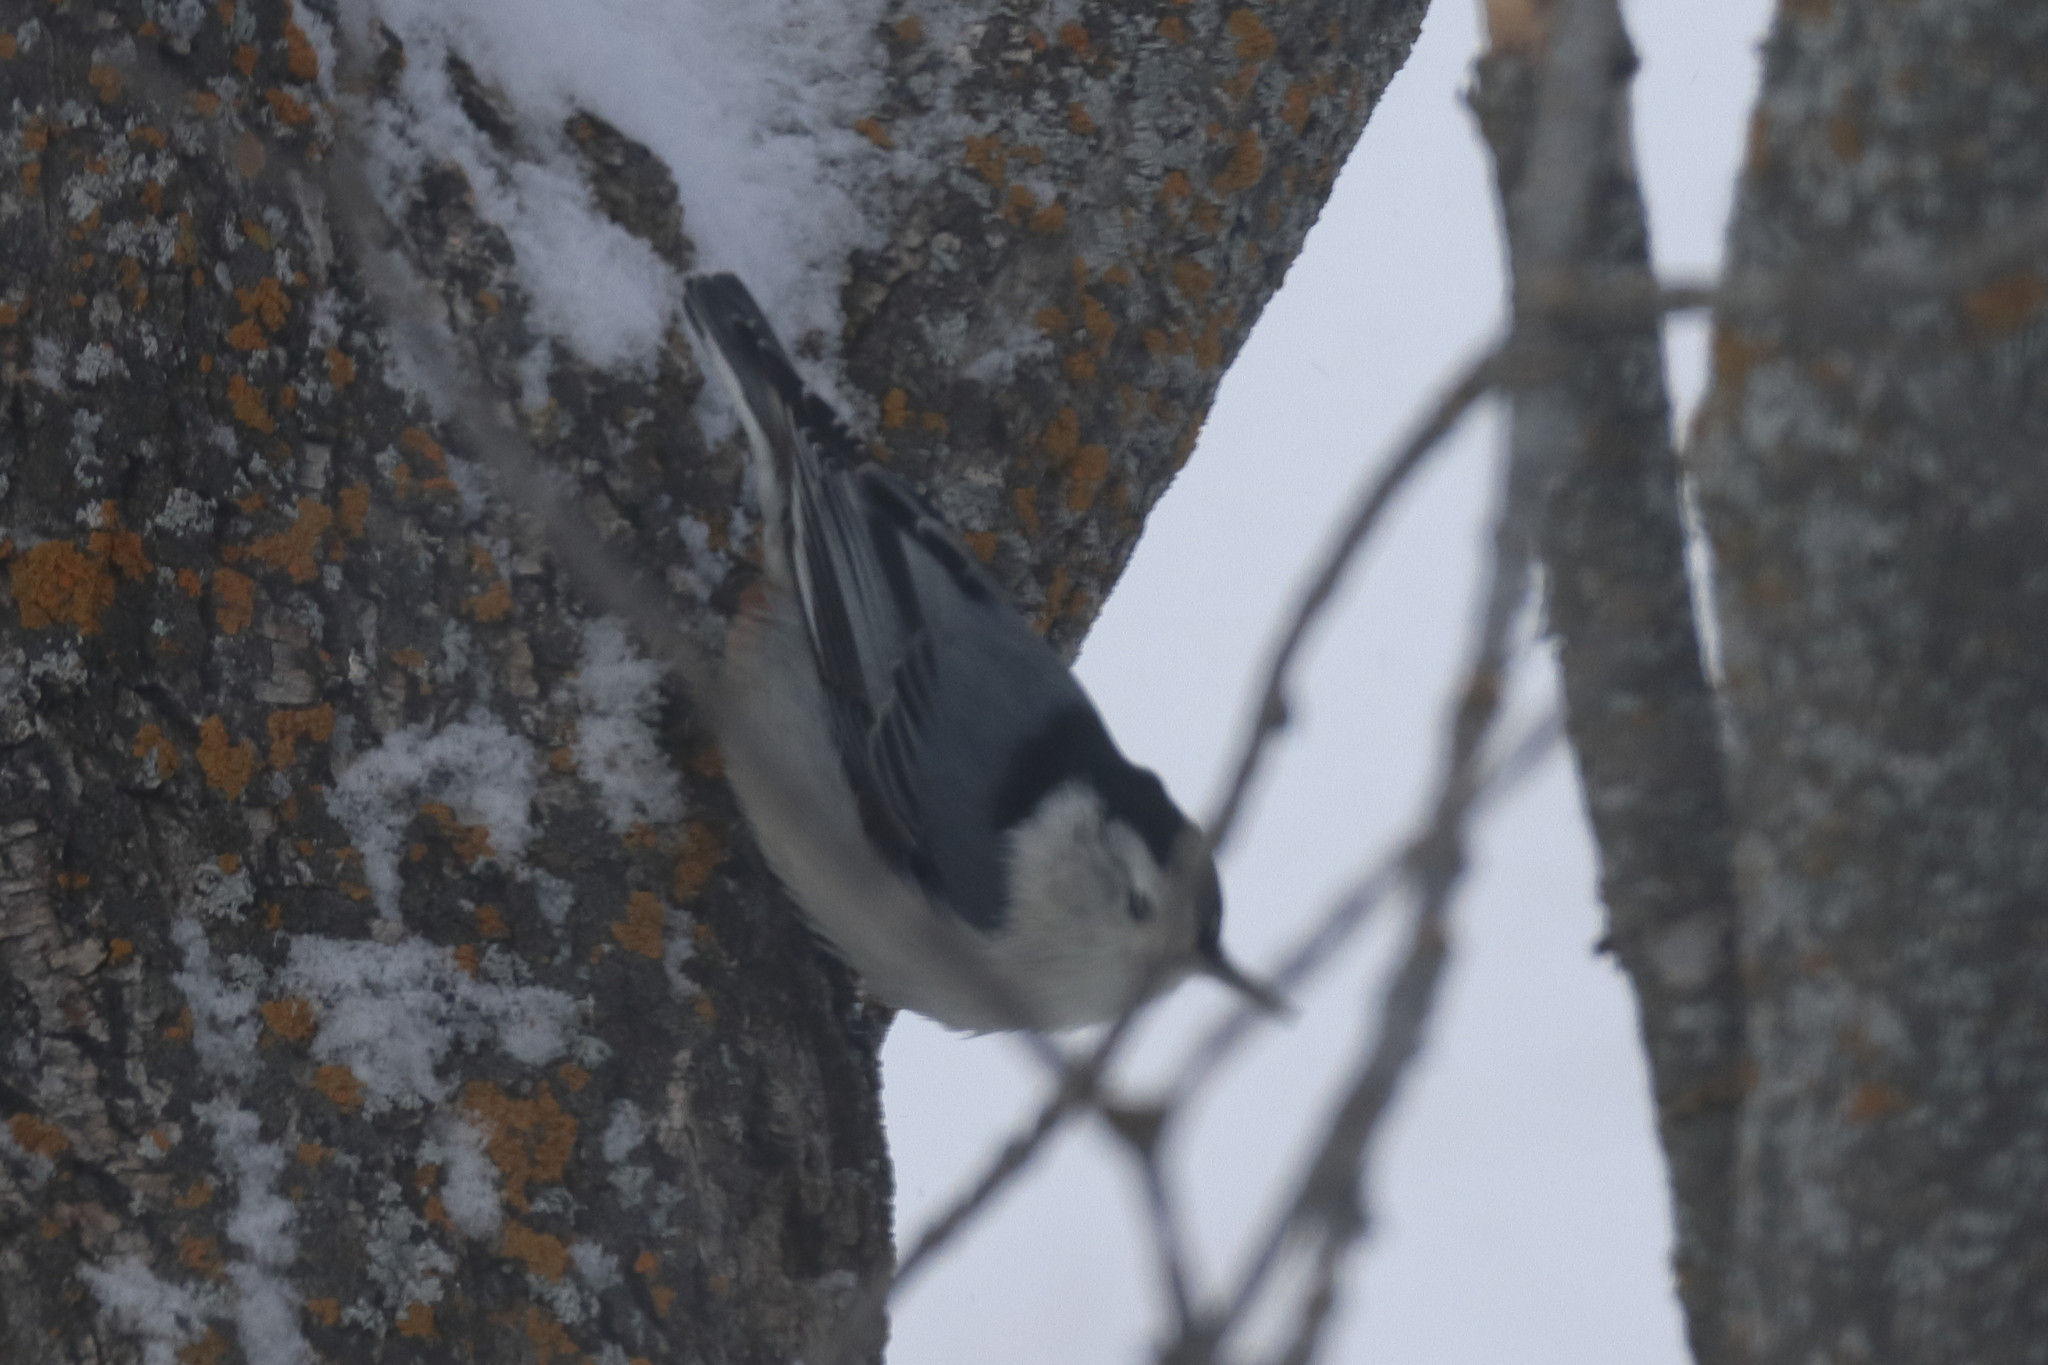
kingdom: Animalia
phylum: Chordata
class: Aves
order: Passeriformes
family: Sittidae
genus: Sitta
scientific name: Sitta carolinensis
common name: White-breasted nuthatch
